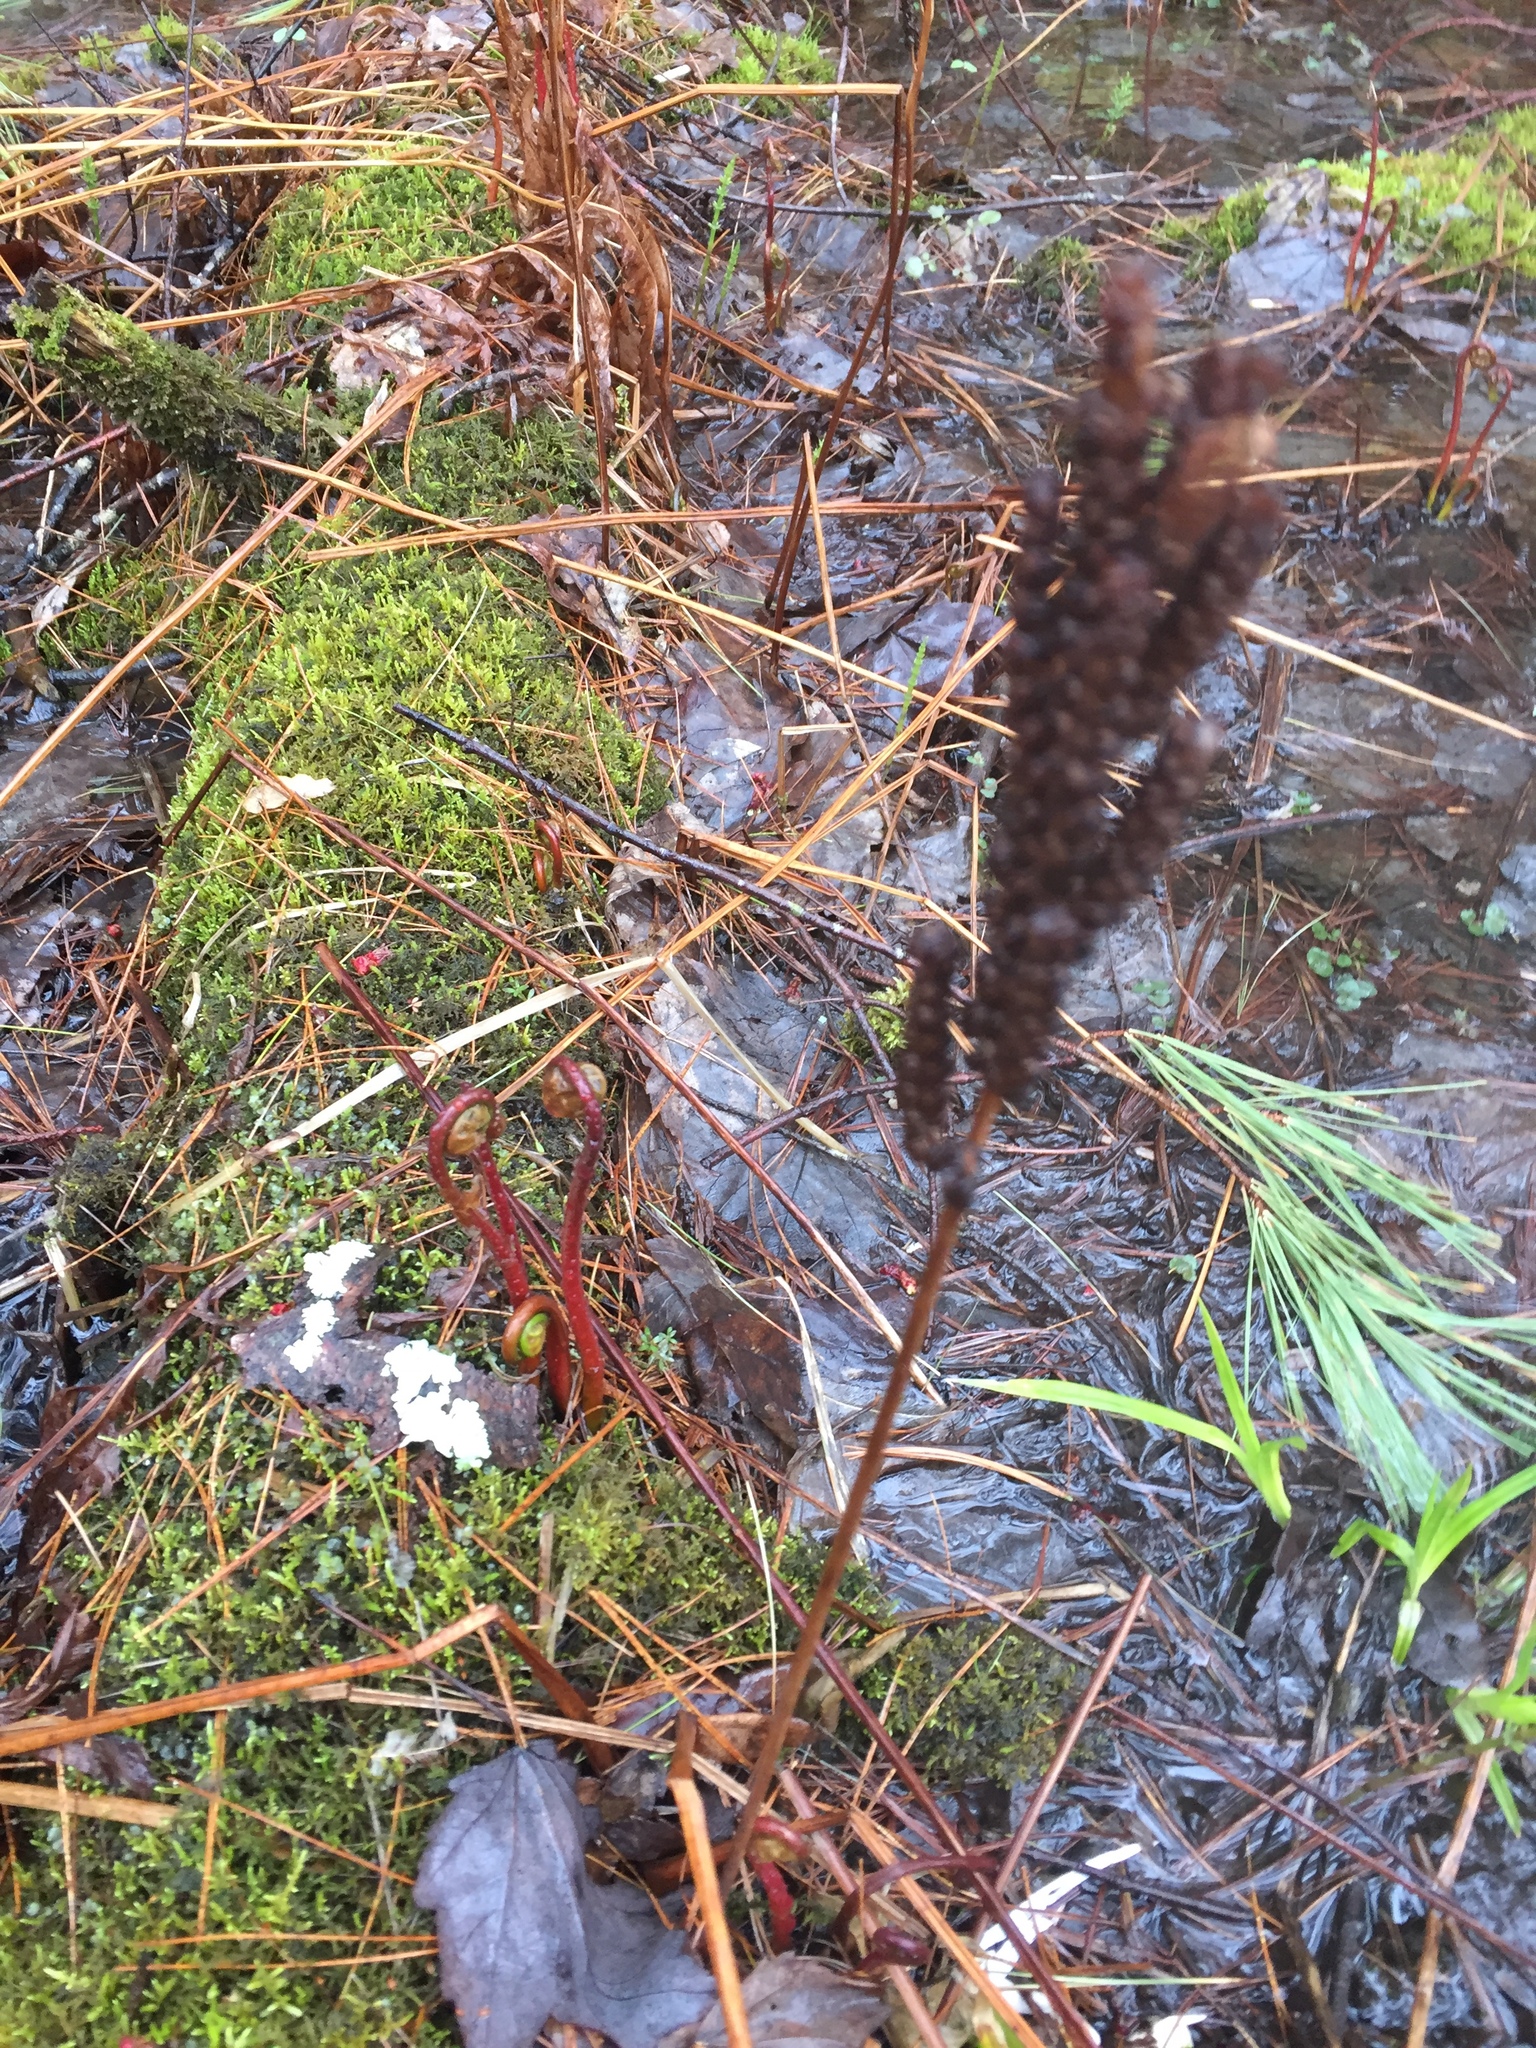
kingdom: Plantae
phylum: Tracheophyta
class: Polypodiopsida
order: Polypodiales
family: Onocleaceae
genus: Onoclea
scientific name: Onoclea sensibilis
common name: Sensitive fern
